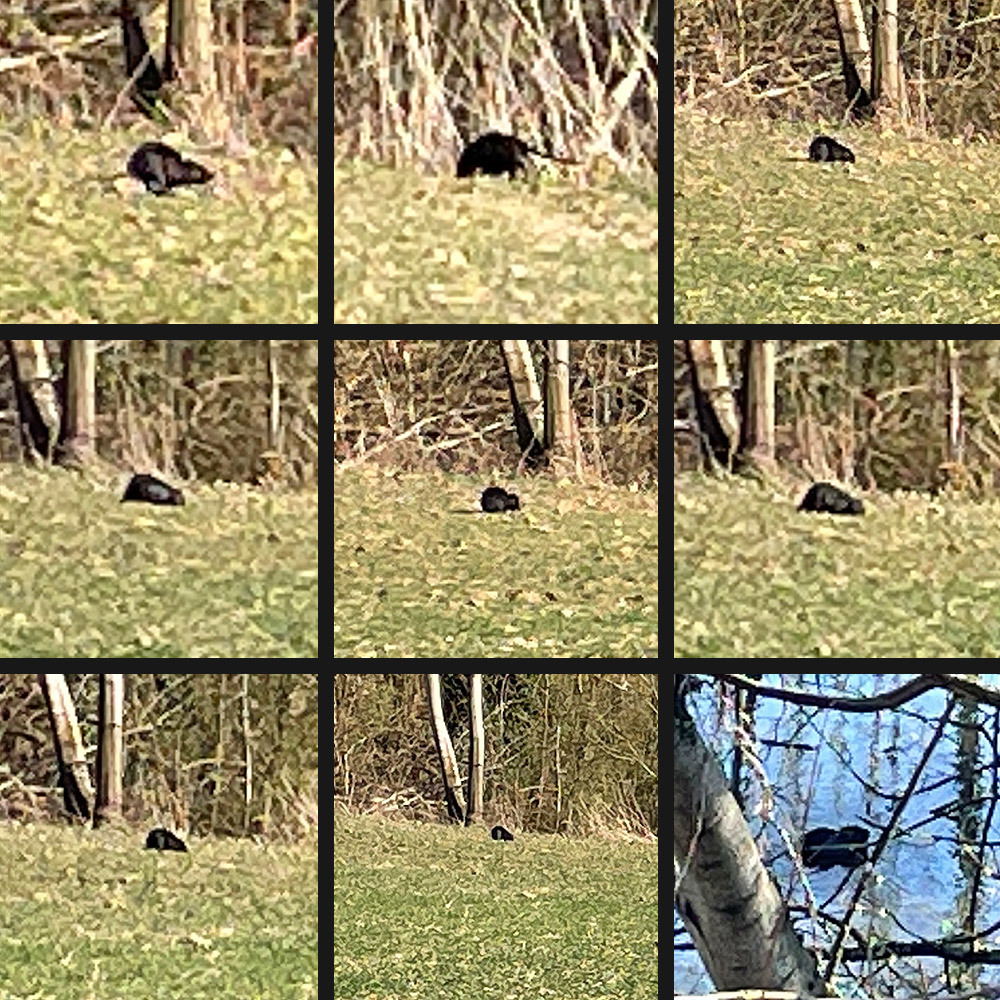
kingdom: Animalia
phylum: Chordata
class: Mammalia
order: Rodentia
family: Myocastoridae
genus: Myocastor
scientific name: Myocastor coypus
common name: Coypu
